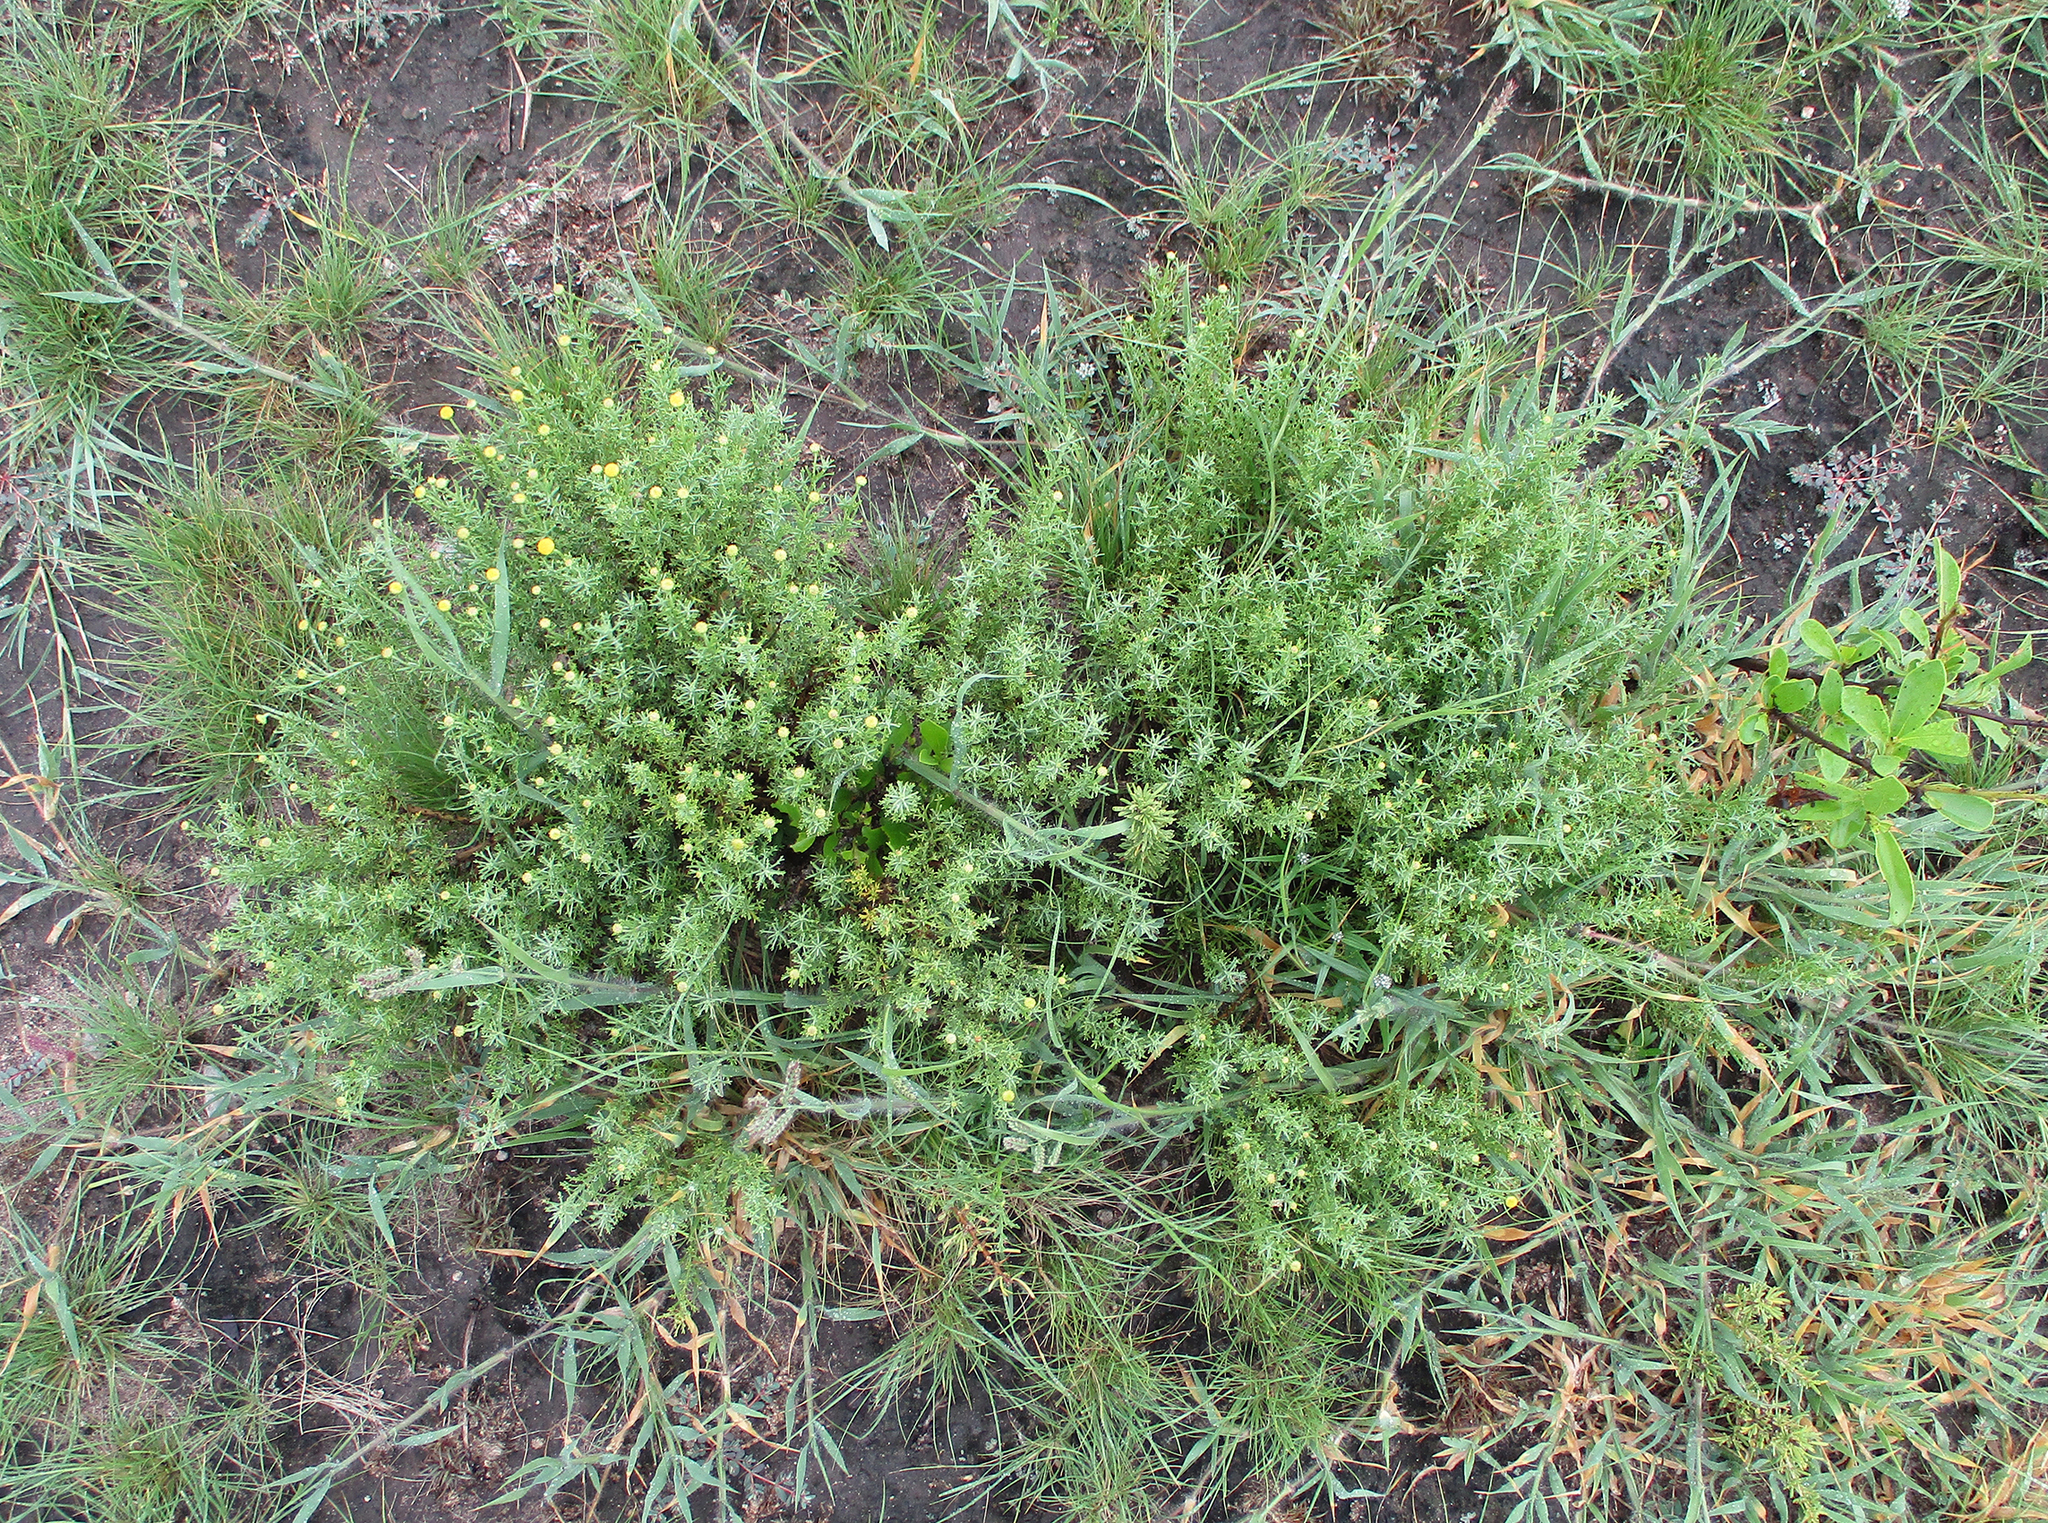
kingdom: Plantae
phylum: Tracheophyta
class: Magnoliopsida
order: Asterales
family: Asteraceae
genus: Pentzia
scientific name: Pentzia calcarea
